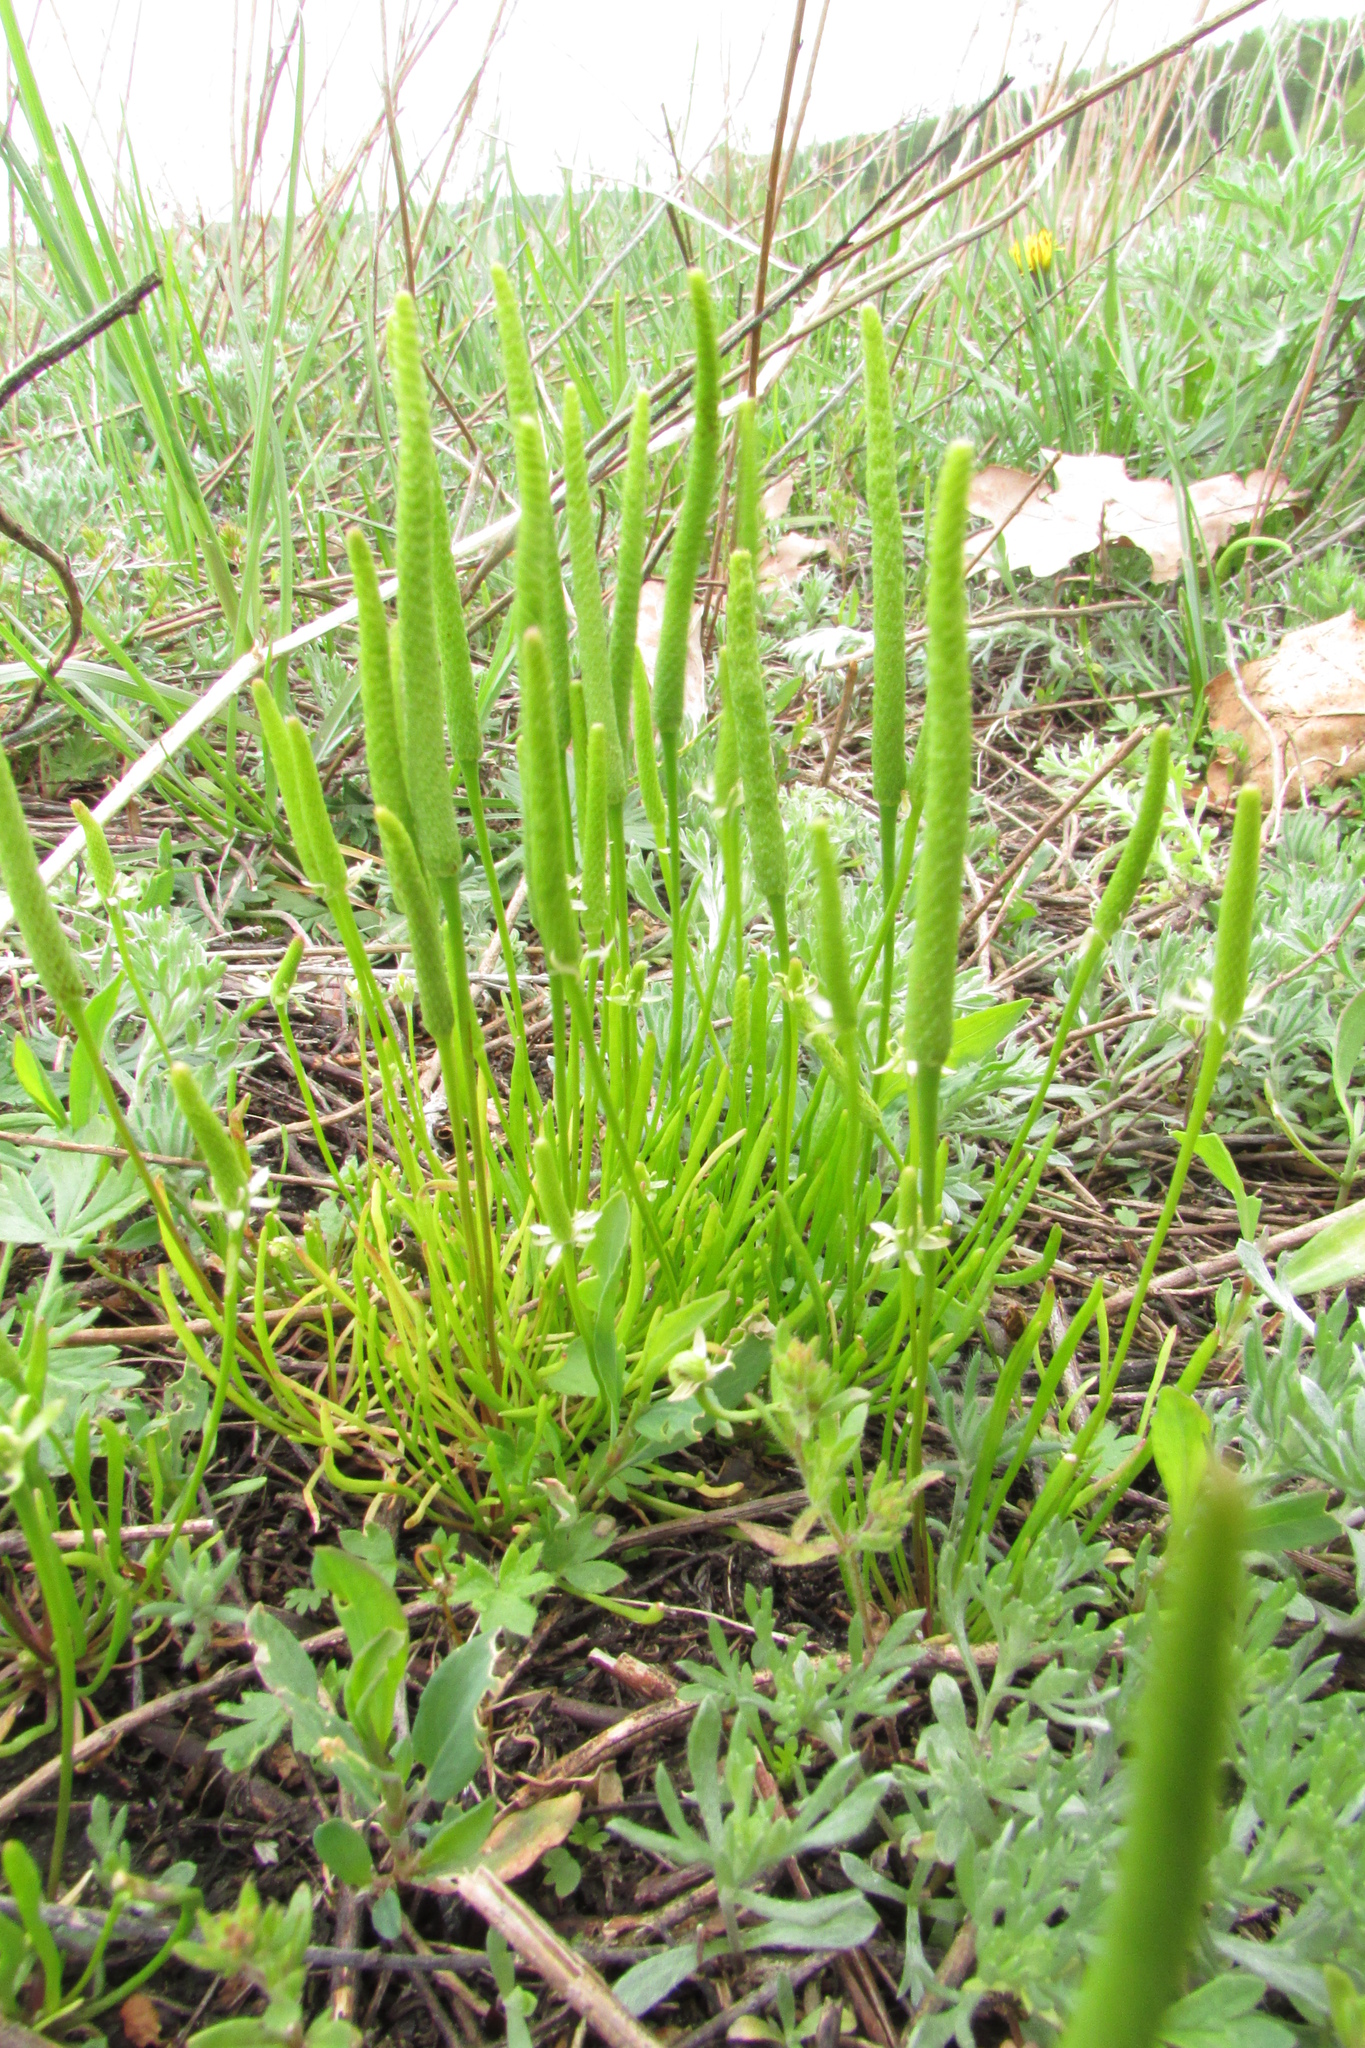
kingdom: Plantae
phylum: Tracheophyta
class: Magnoliopsida
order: Ranunculales
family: Ranunculaceae
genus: Myosurus
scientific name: Myosurus minimus
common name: Mousetail
